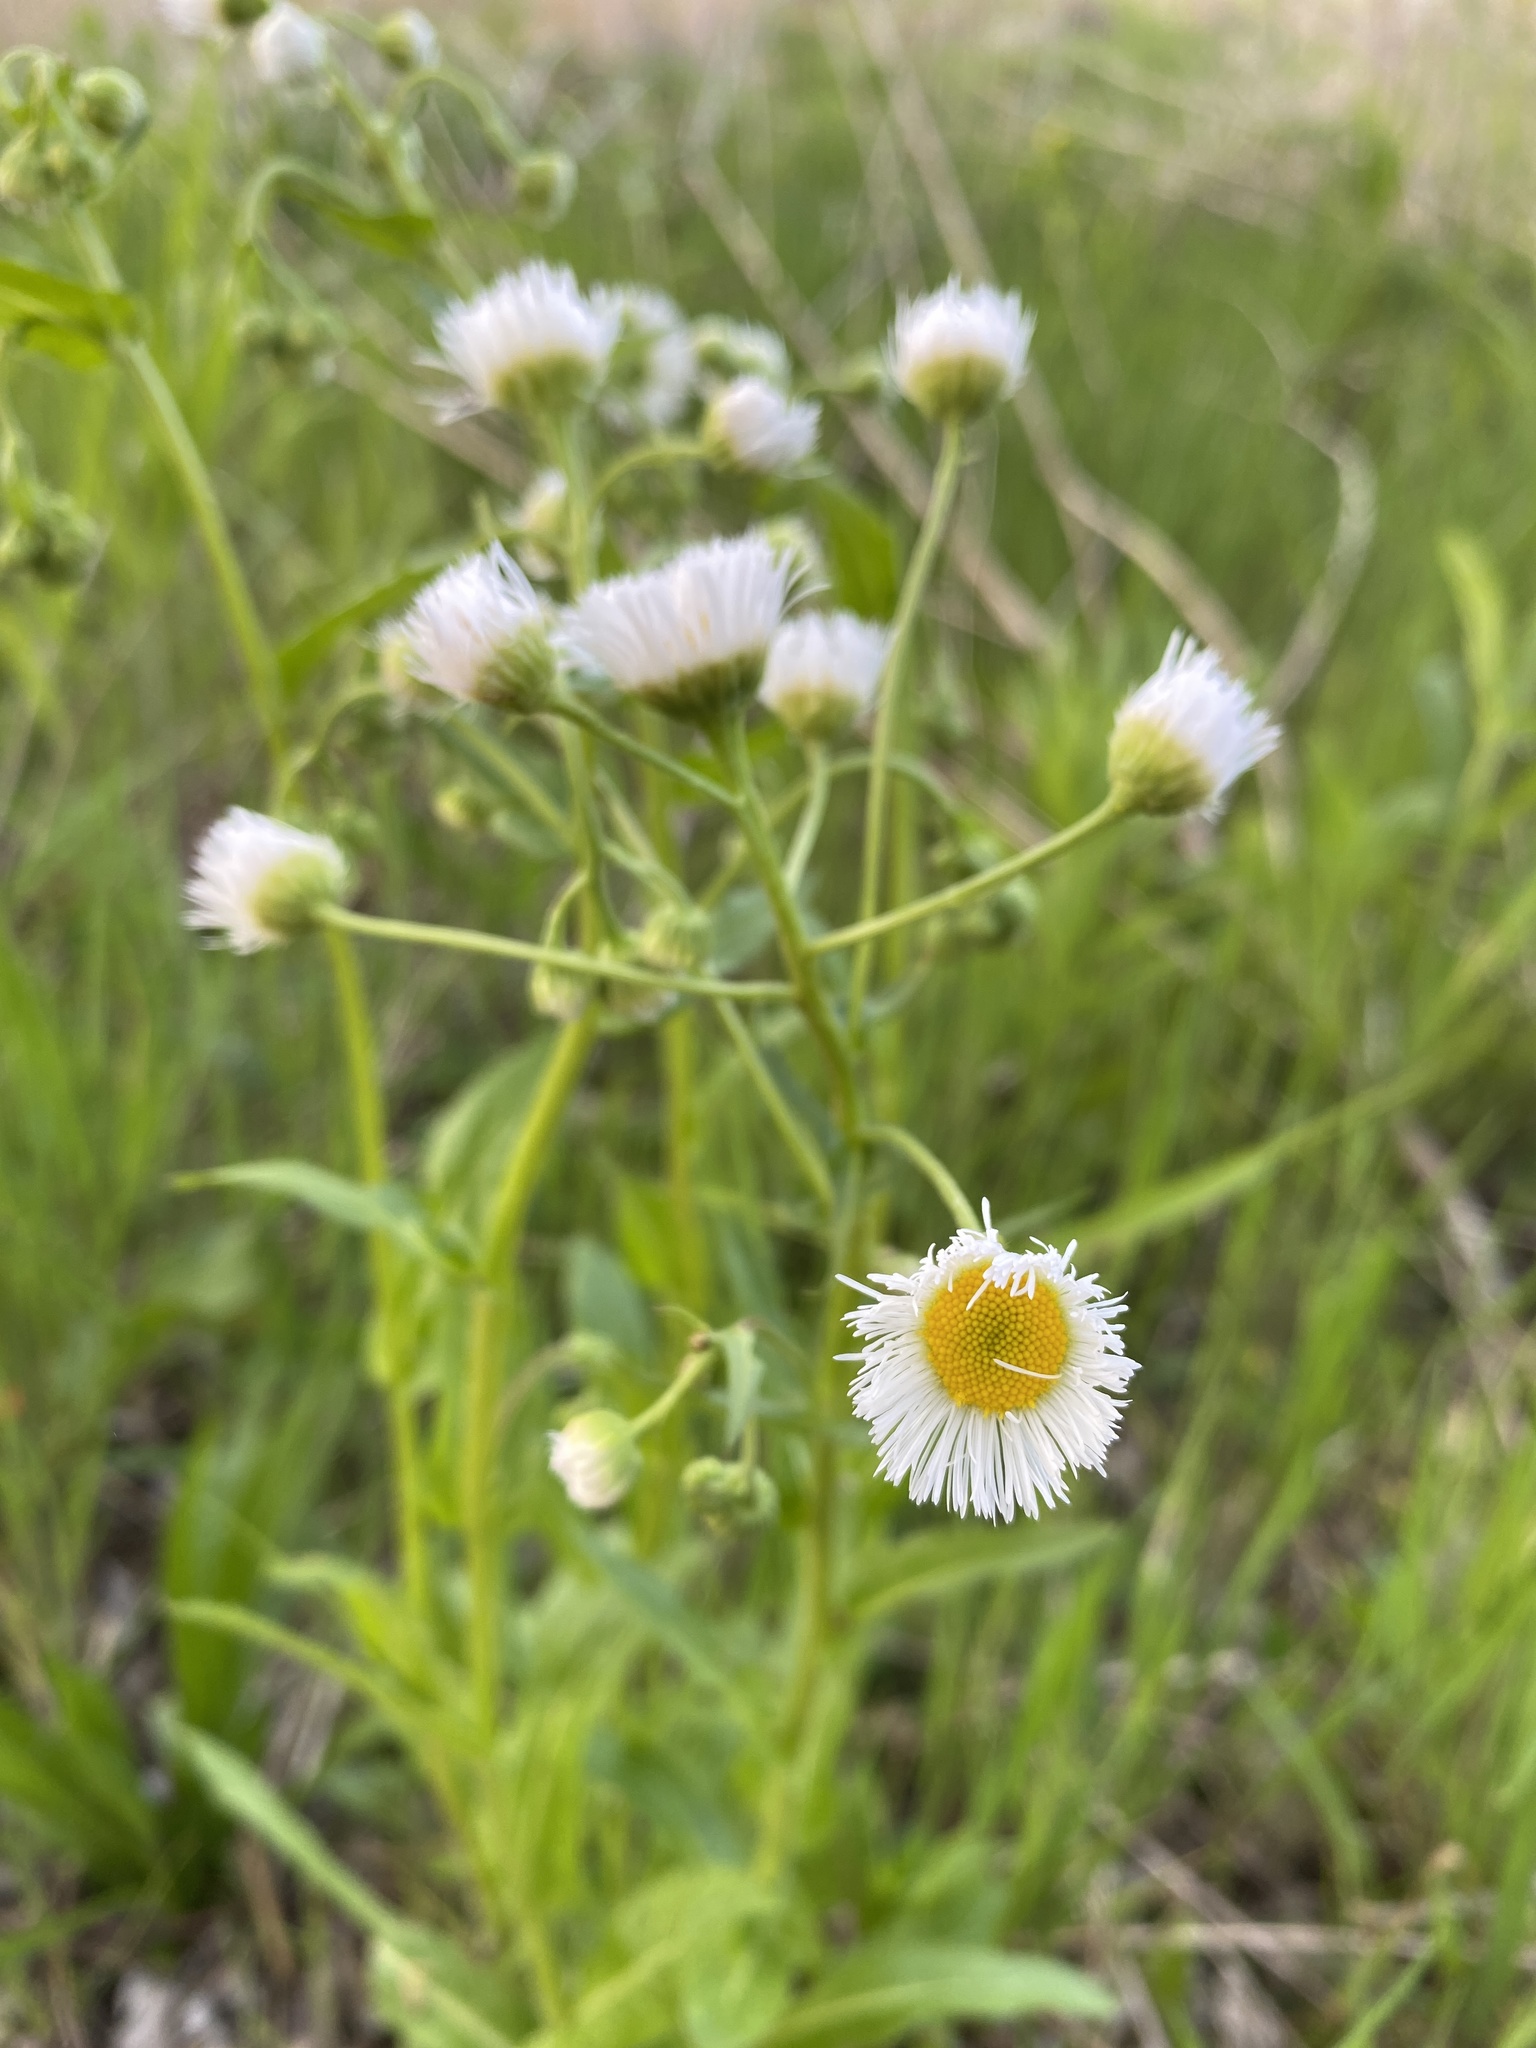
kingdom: Plantae
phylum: Tracheophyta
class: Magnoliopsida
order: Asterales
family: Asteraceae
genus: Erigeron
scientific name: Erigeron philadelphicus
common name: Robin's-plantain
